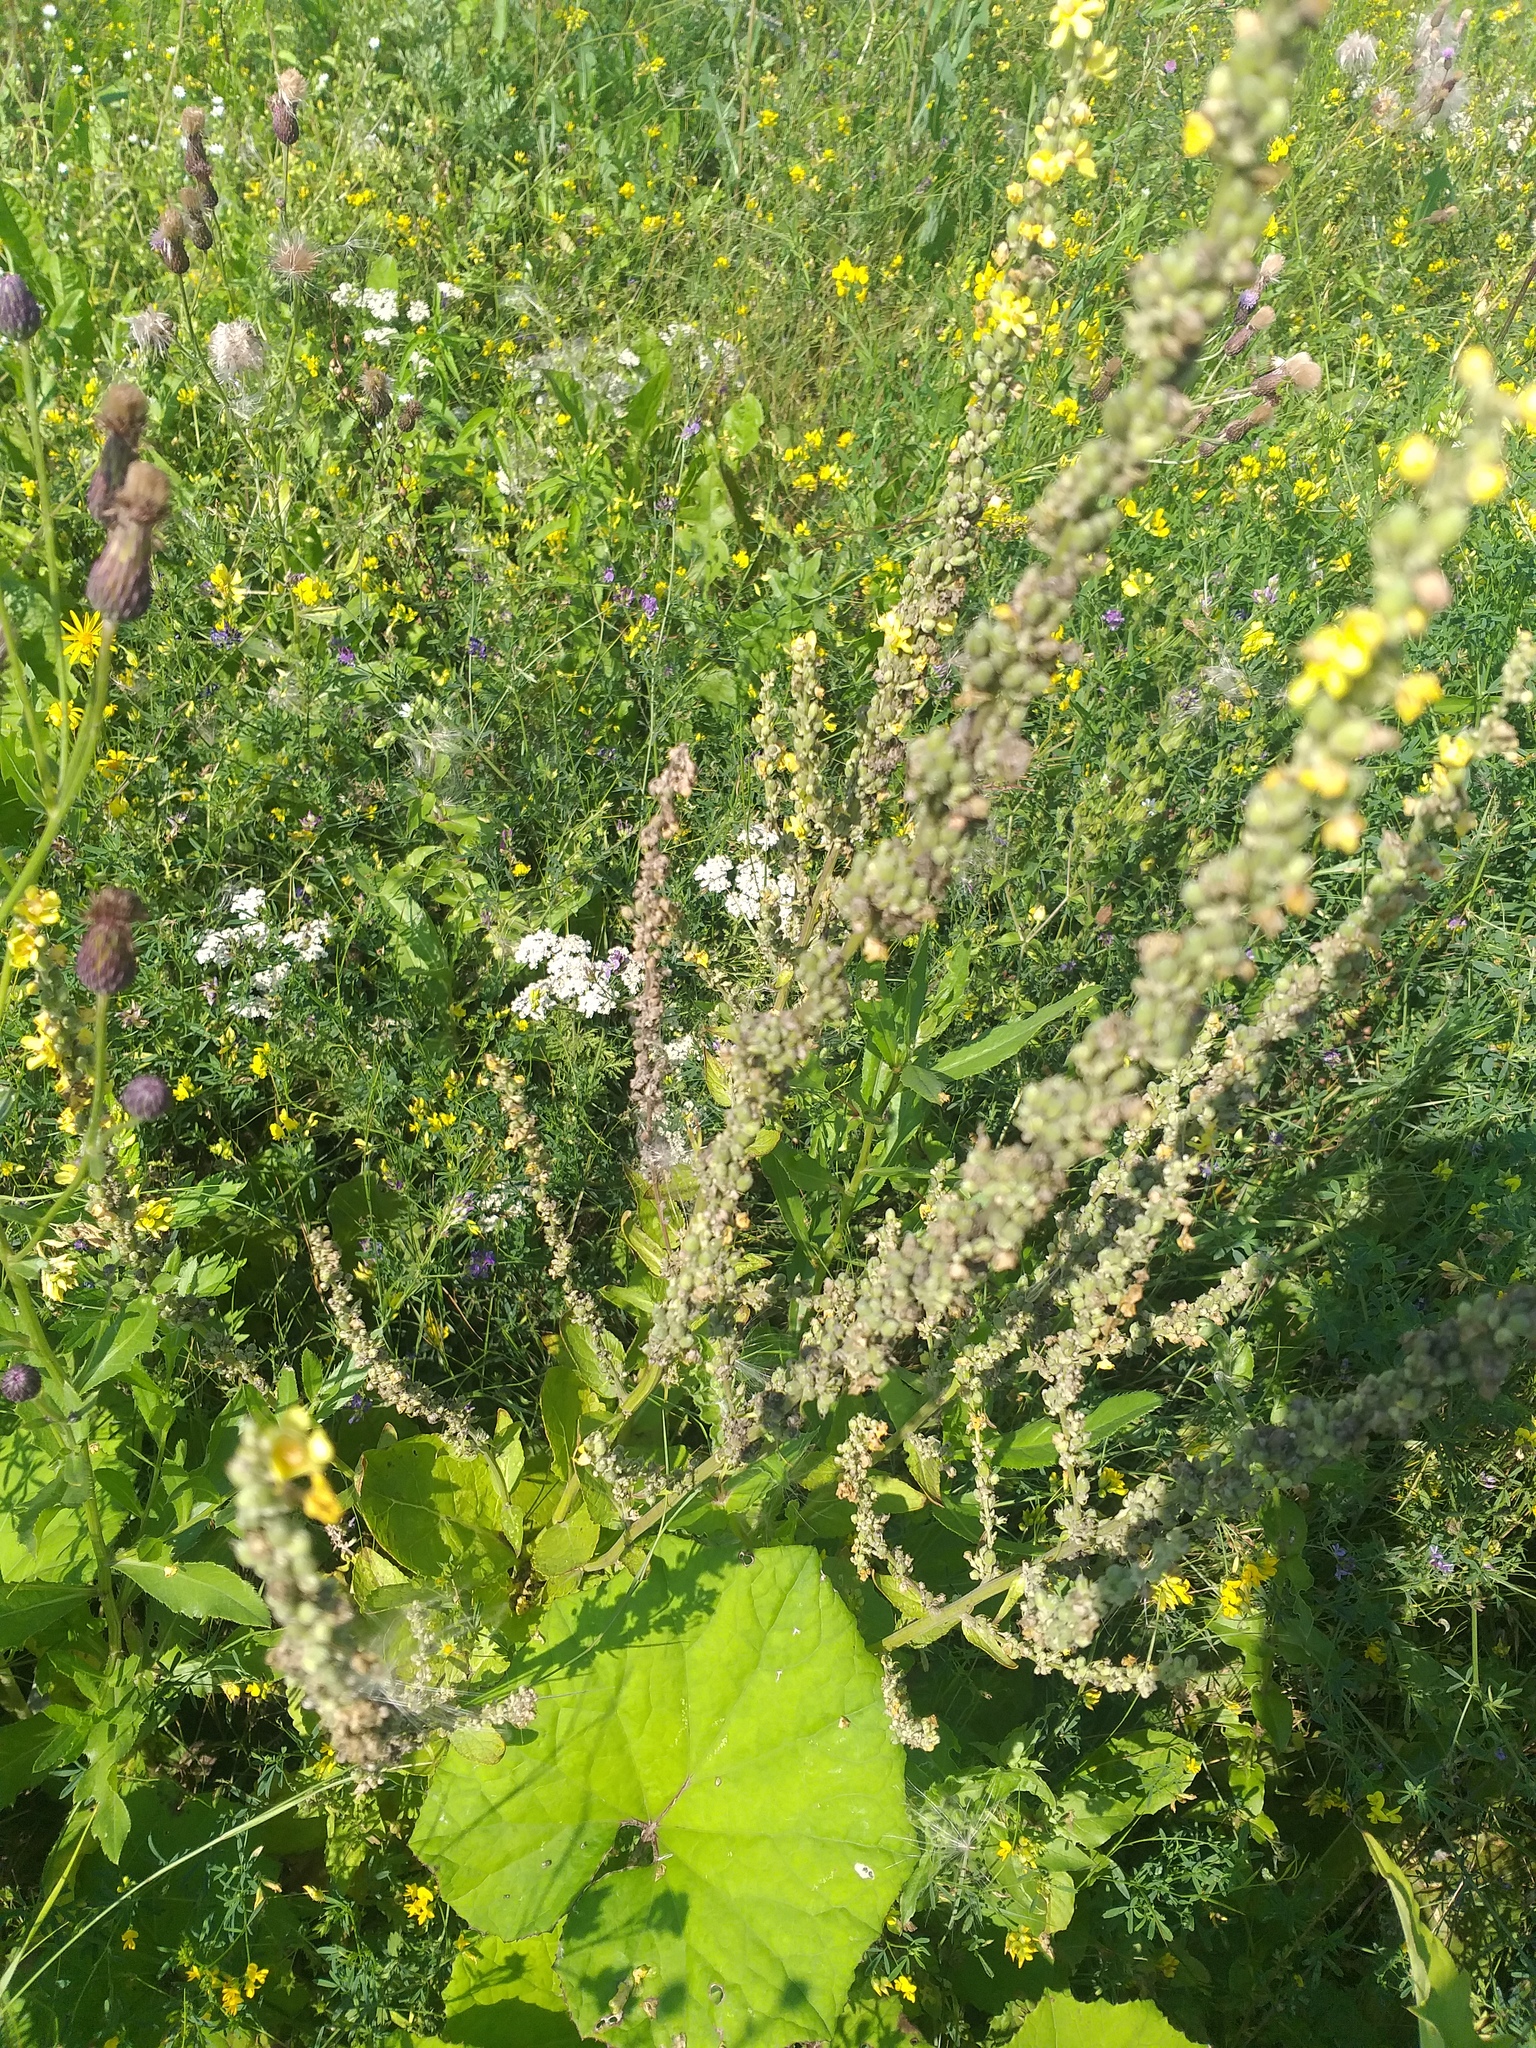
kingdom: Plantae
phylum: Tracheophyta
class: Magnoliopsida
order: Lamiales
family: Scrophulariaceae
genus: Verbascum
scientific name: Verbascum lychnitis
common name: White mullein
